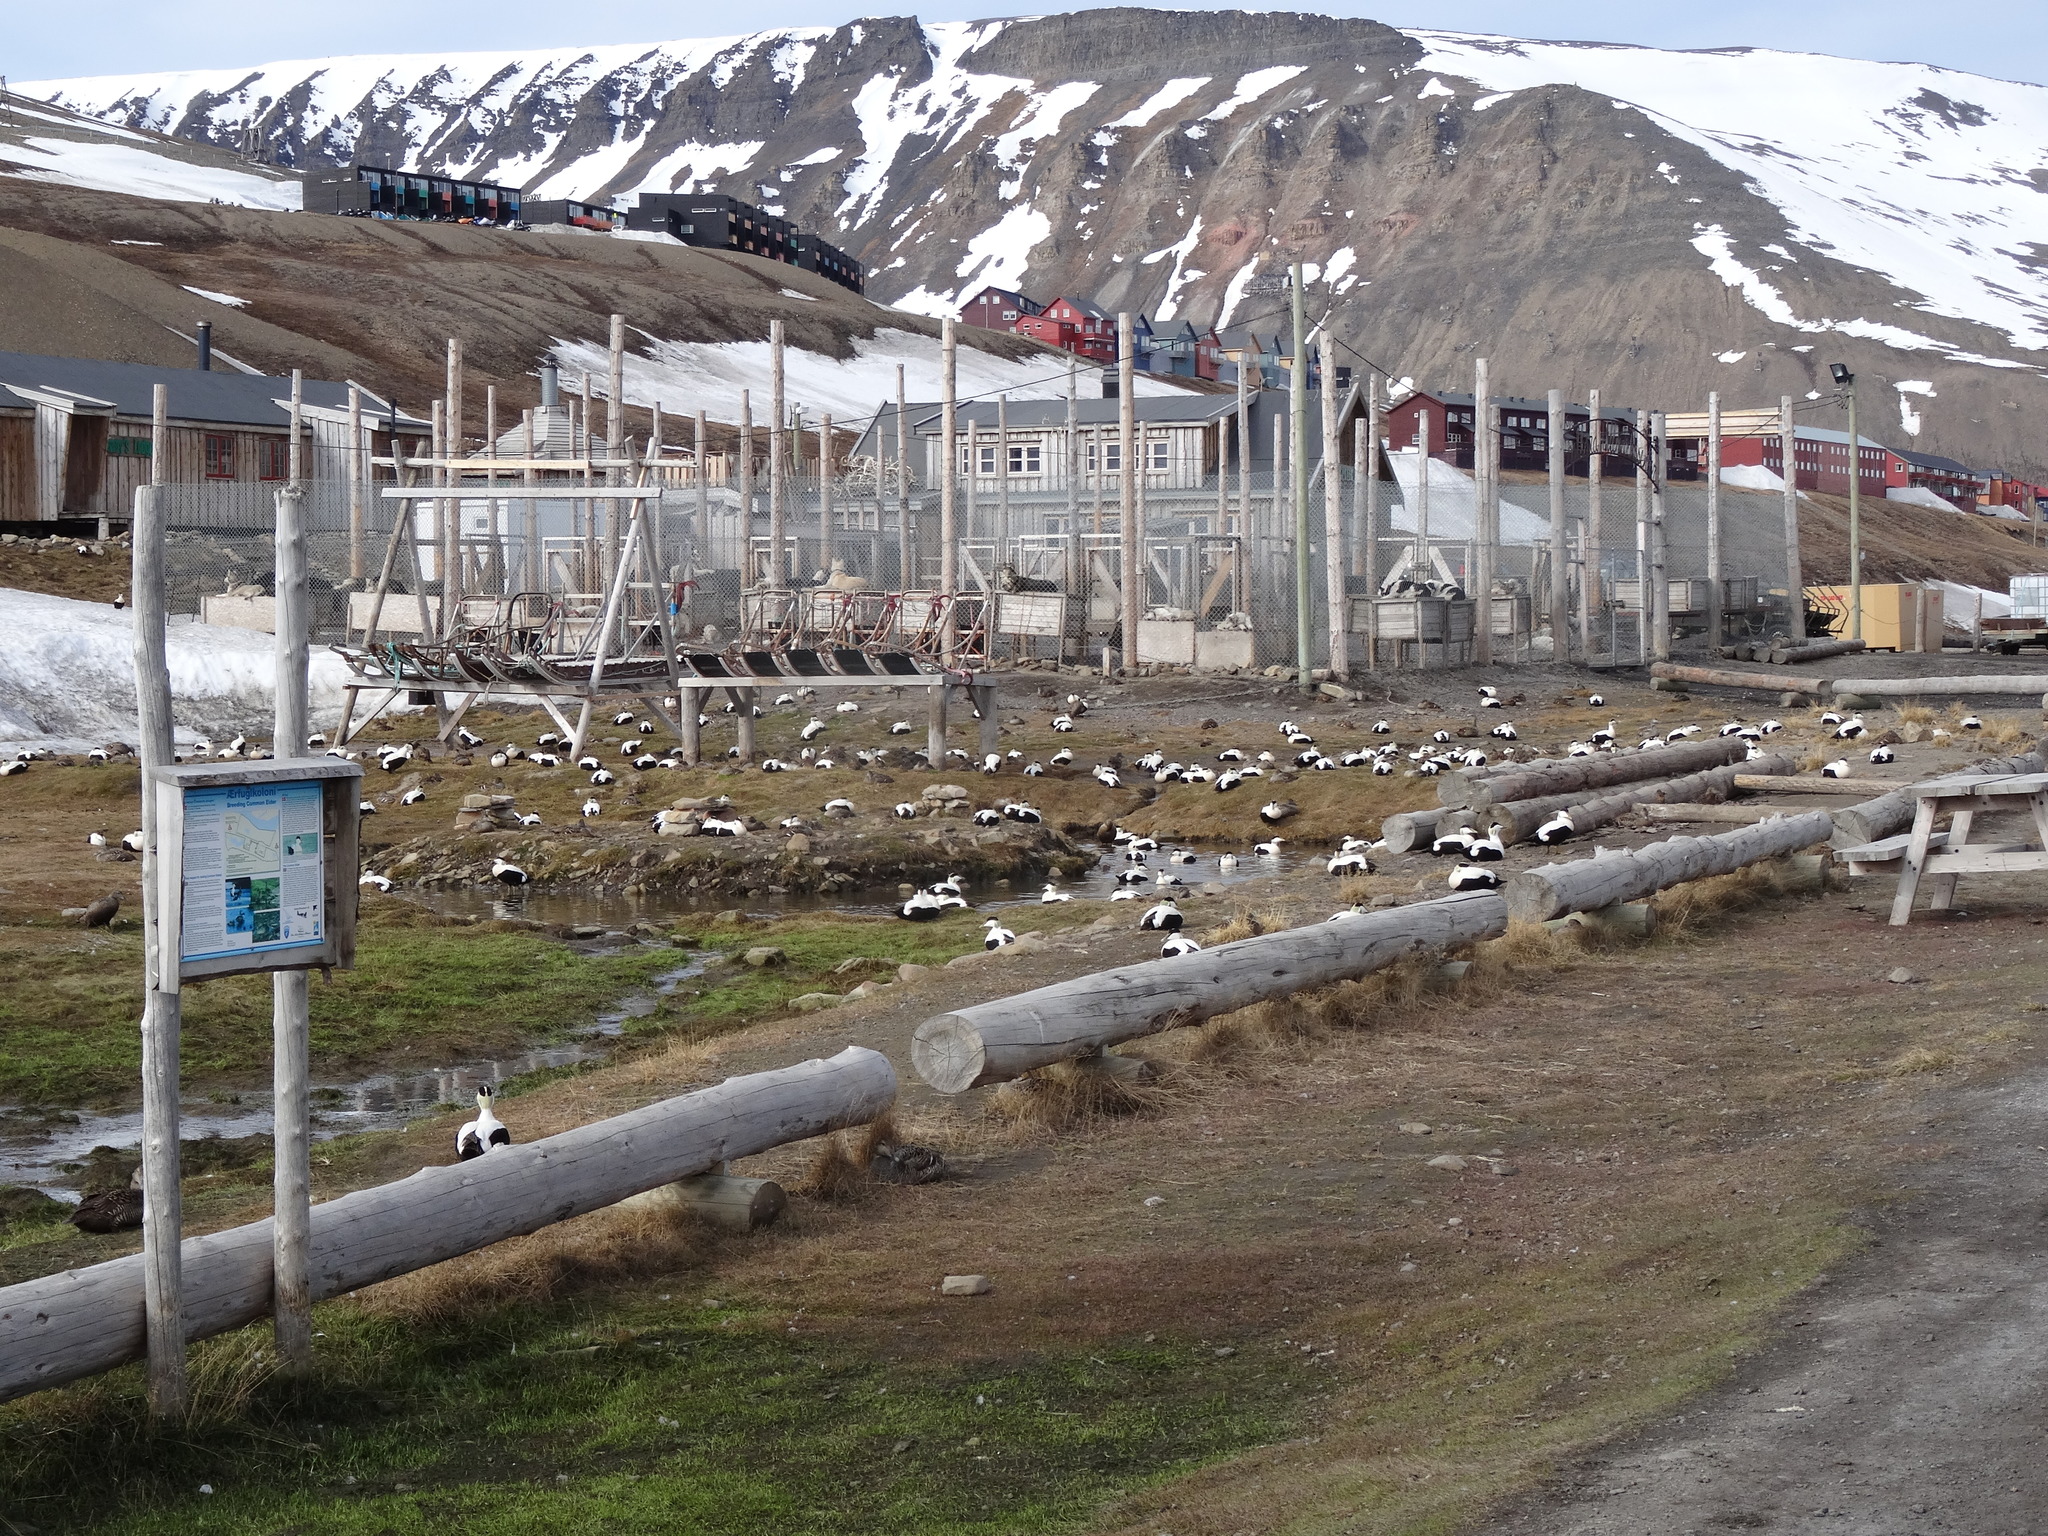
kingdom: Animalia
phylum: Chordata
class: Aves
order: Anseriformes
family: Anatidae
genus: Somateria
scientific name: Somateria mollissima
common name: Common eider
